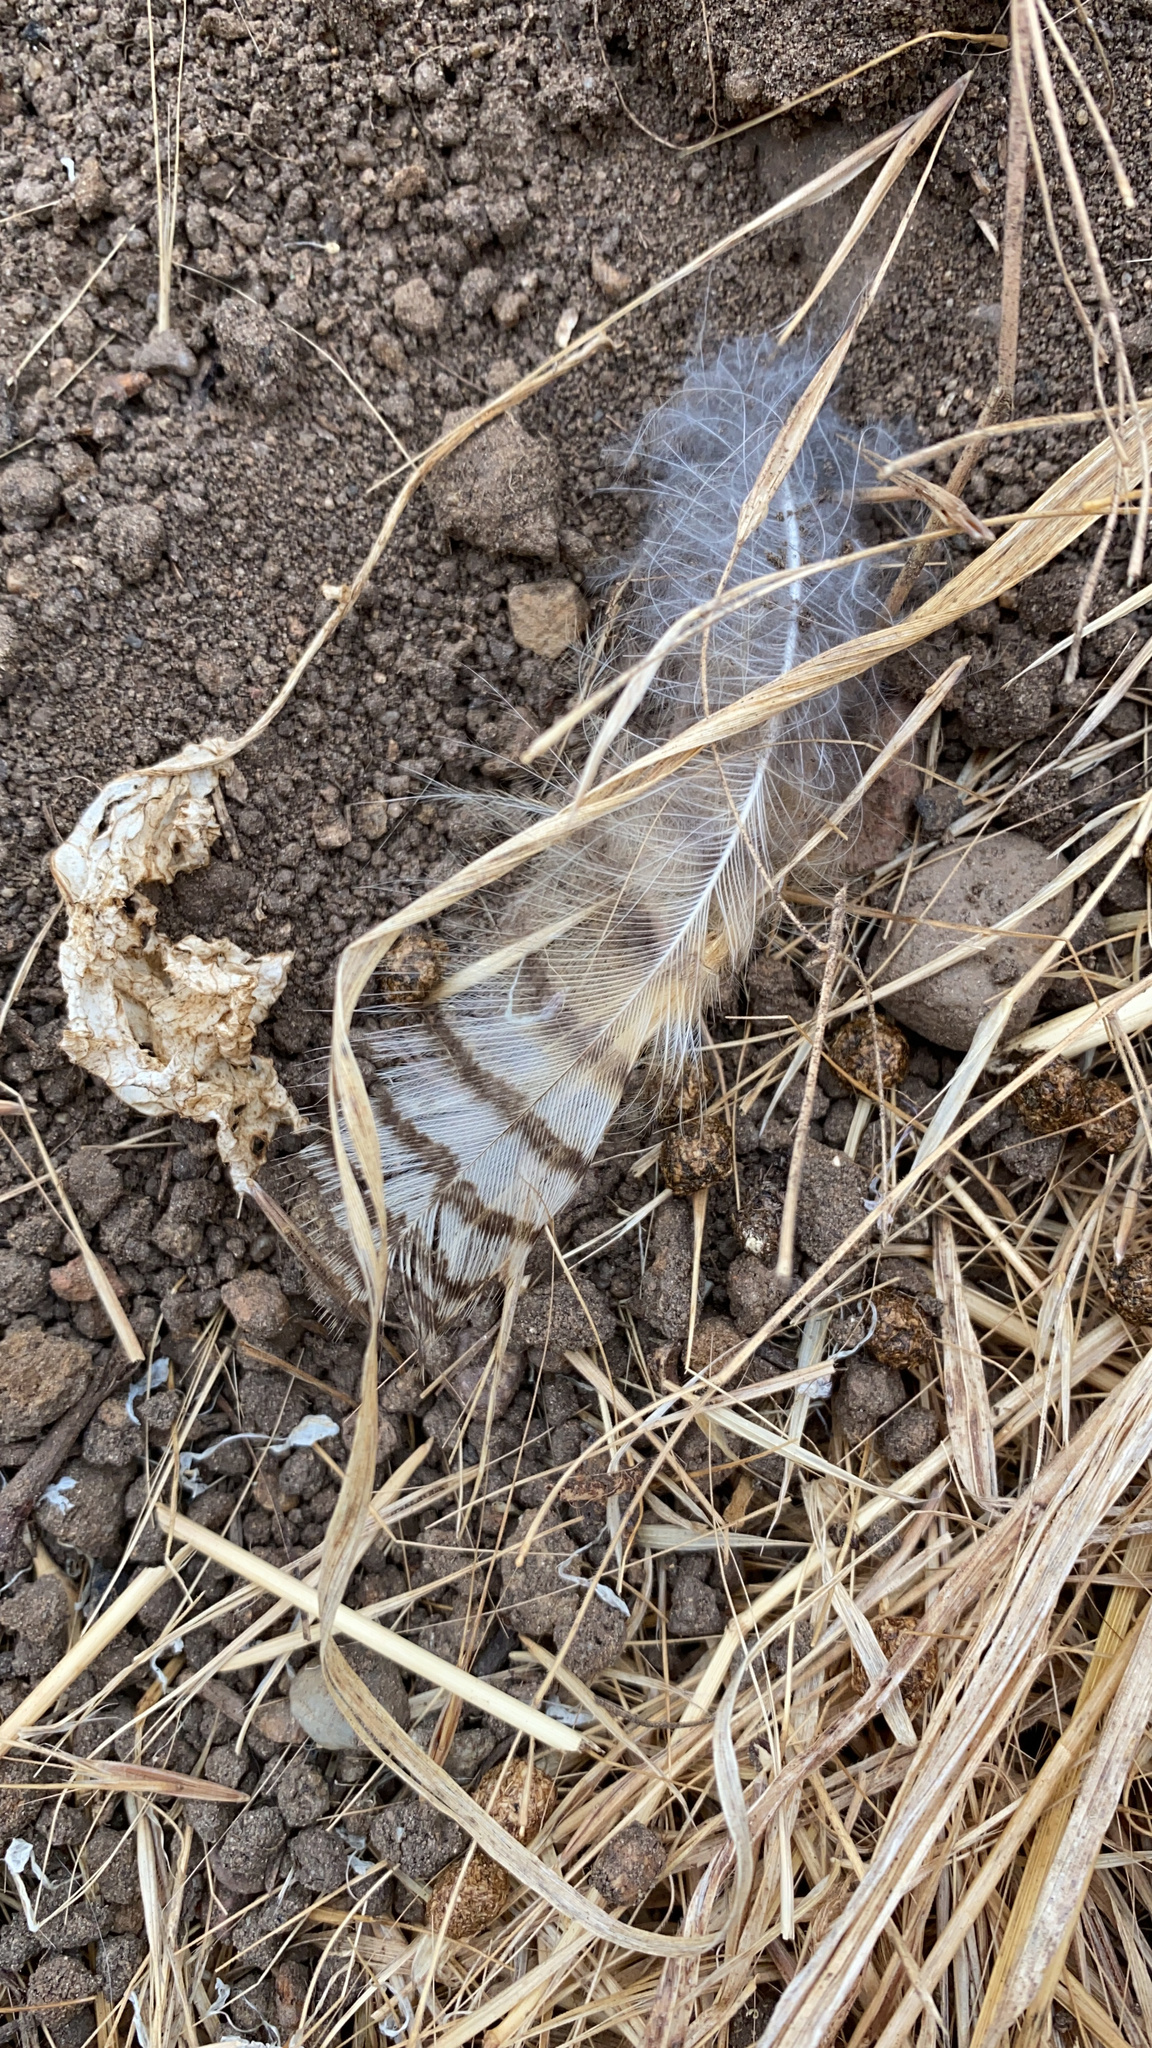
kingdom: Animalia
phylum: Chordata
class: Aves
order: Strigiformes
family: Strigidae
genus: Bubo
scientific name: Bubo virginianus
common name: Great horned owl
